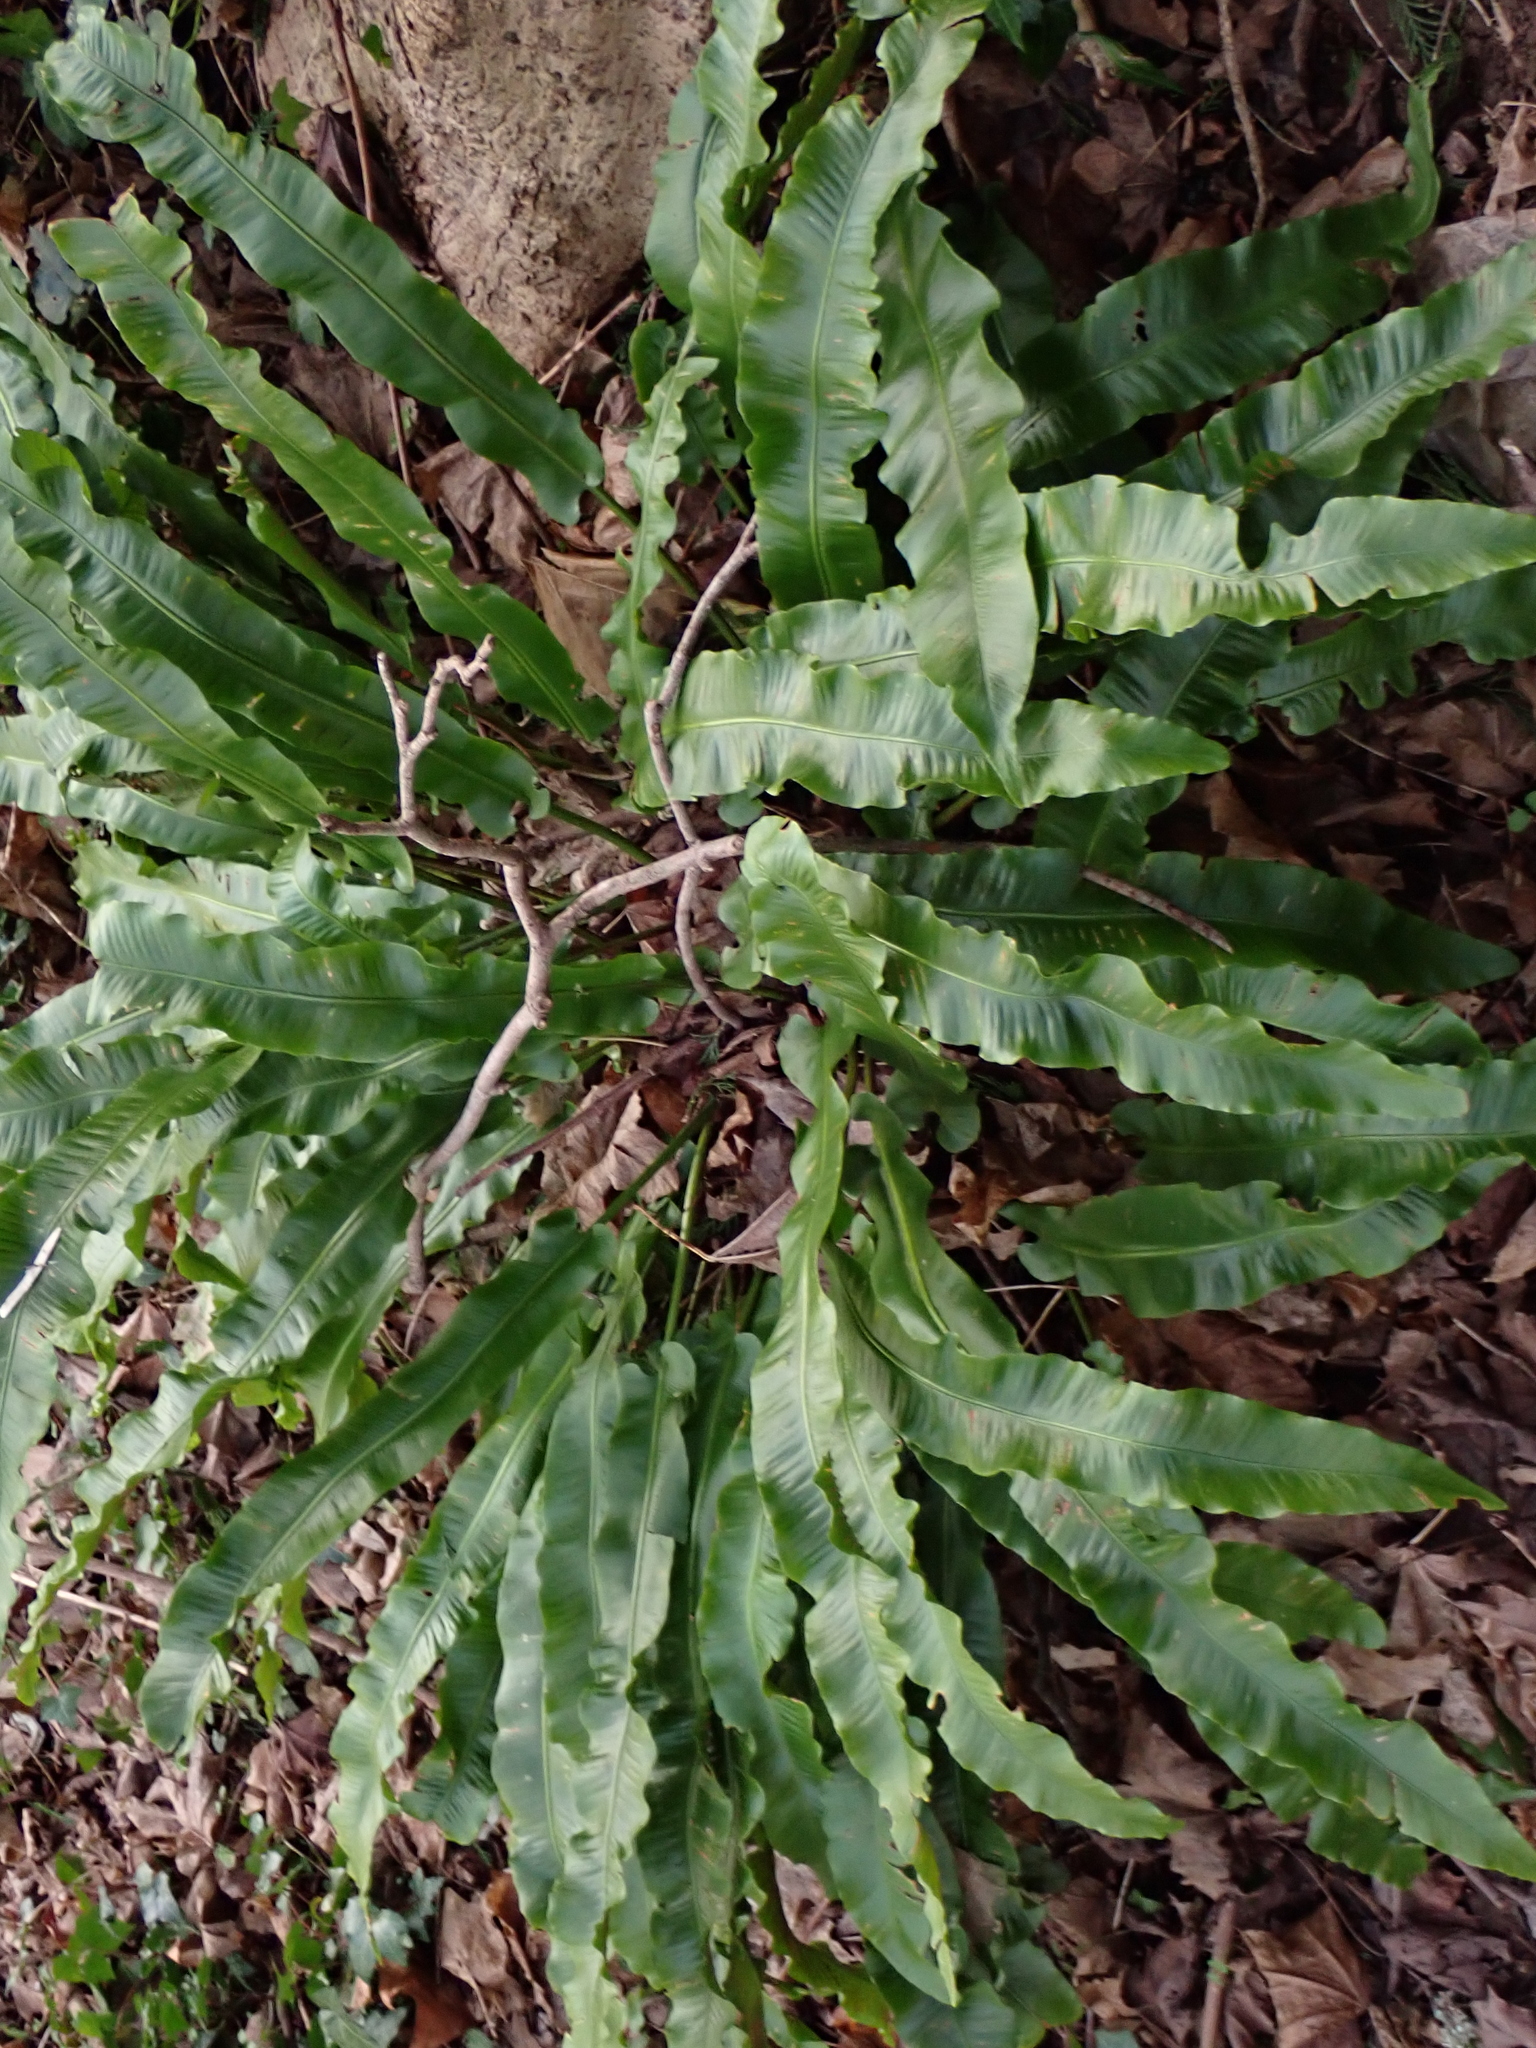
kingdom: Plantae
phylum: Tracheophyta
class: Polypodiopsida
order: Polypodiales
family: Aspleniaceae
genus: Asplenium
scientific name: Asplenium scolopendrium
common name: Hart's-tongue fern
